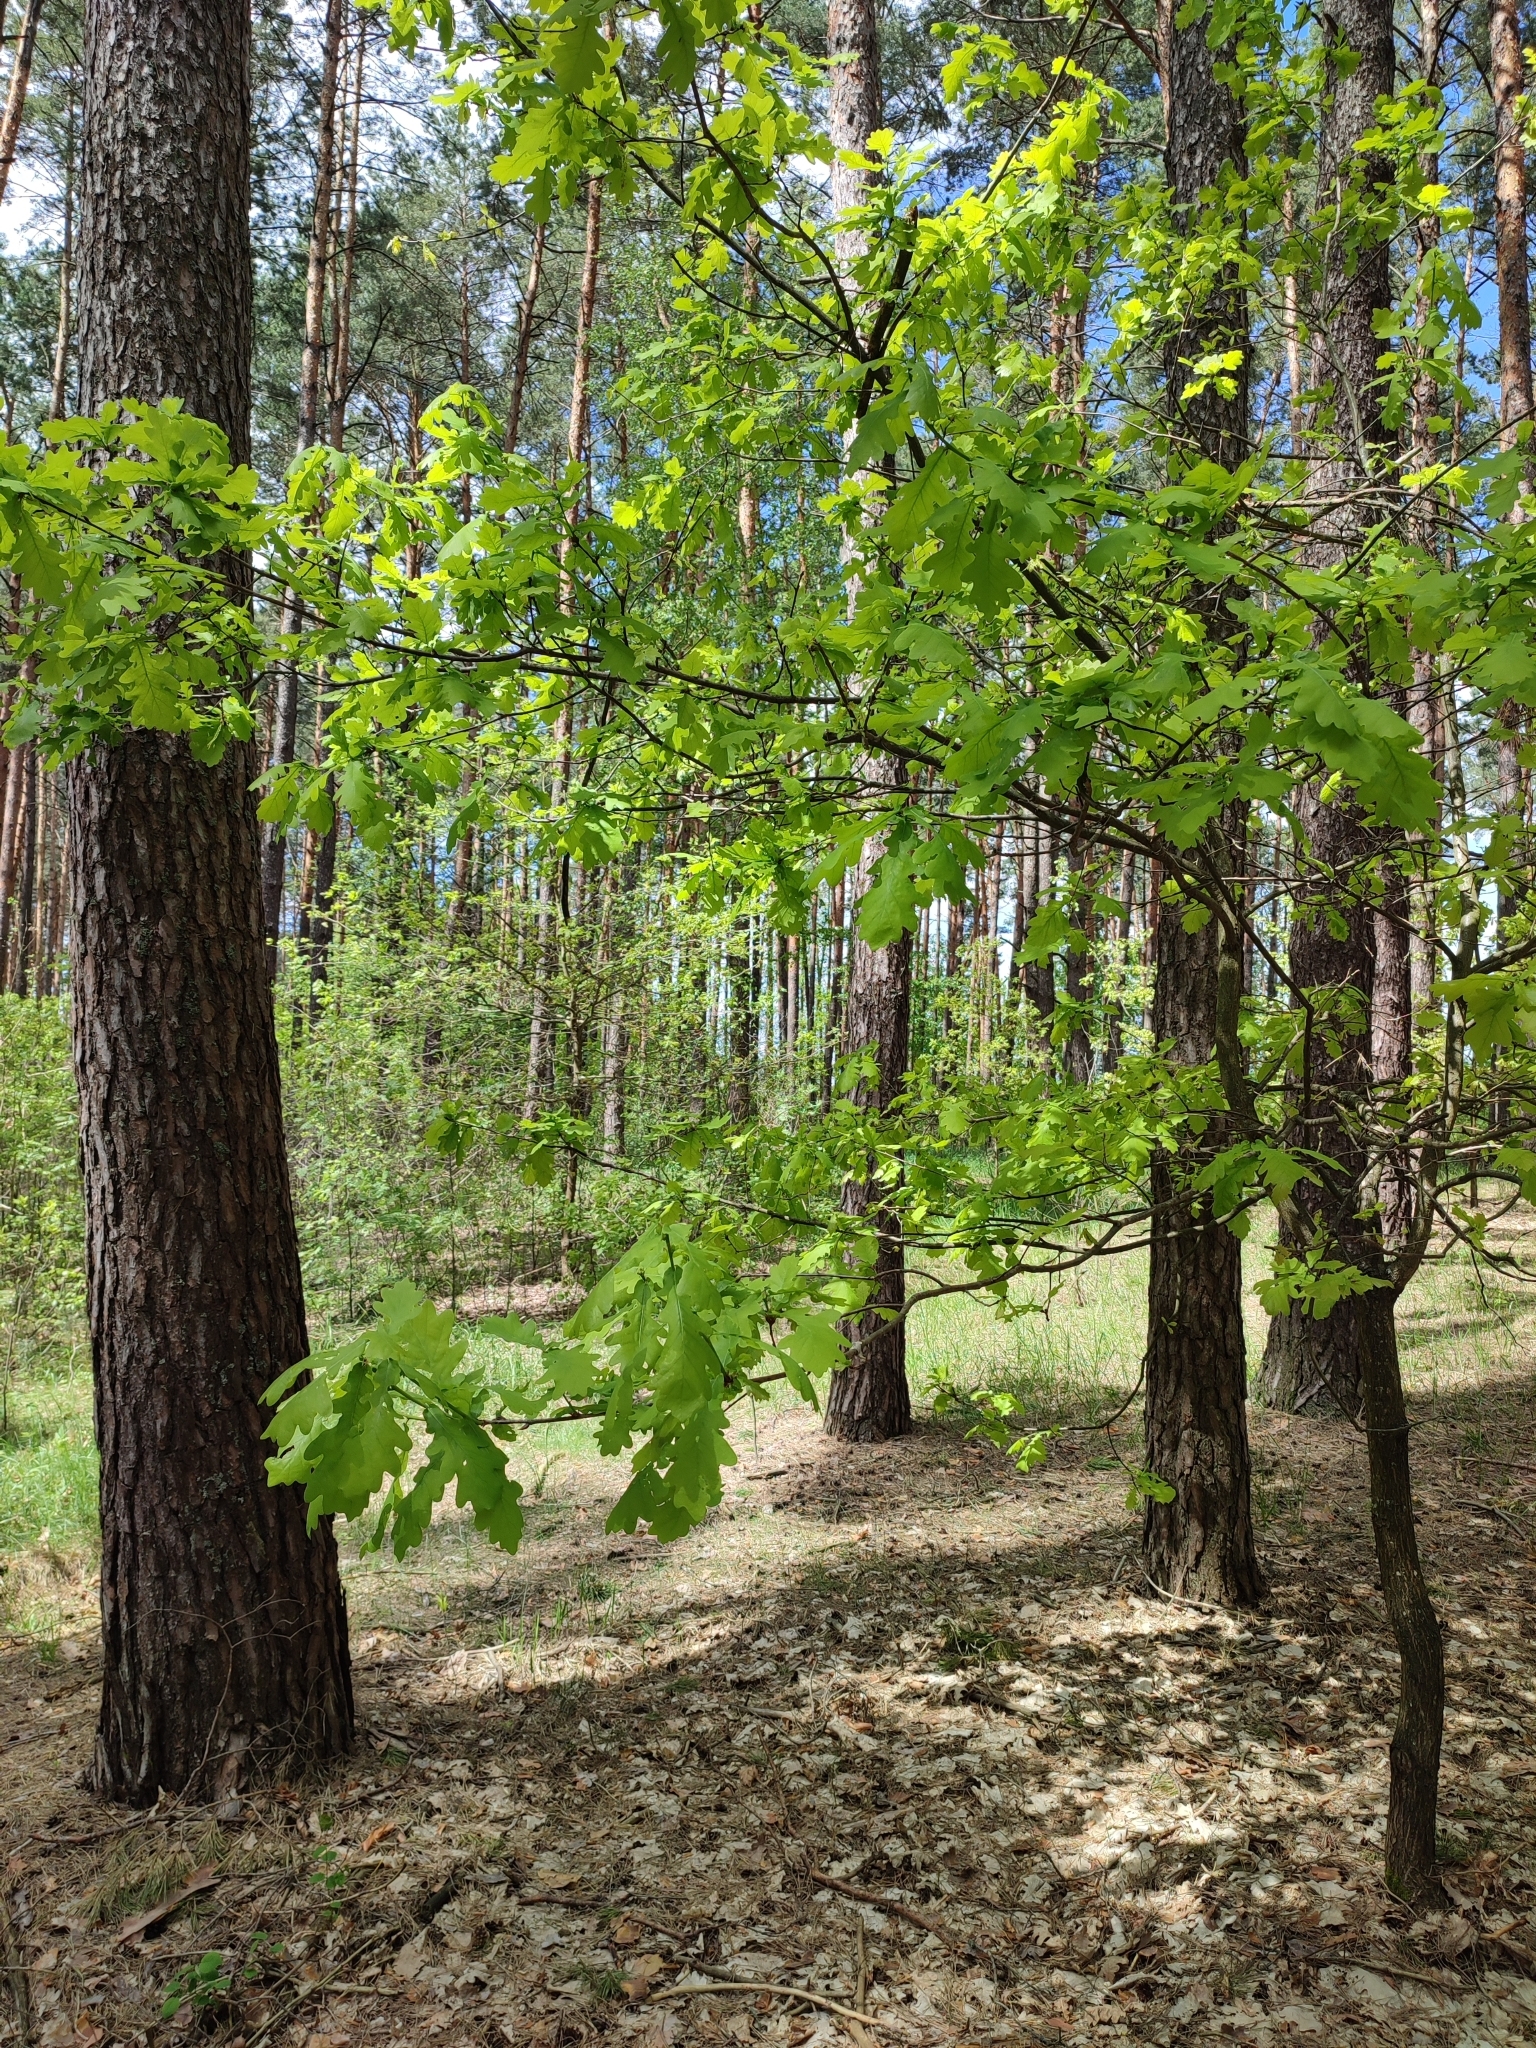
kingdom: Plantae
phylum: Tracheophyta
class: Magnoliopsida
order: Fagales
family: Fagaceae
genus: Quercus
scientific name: Quercus robur
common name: Pedunculate oak
